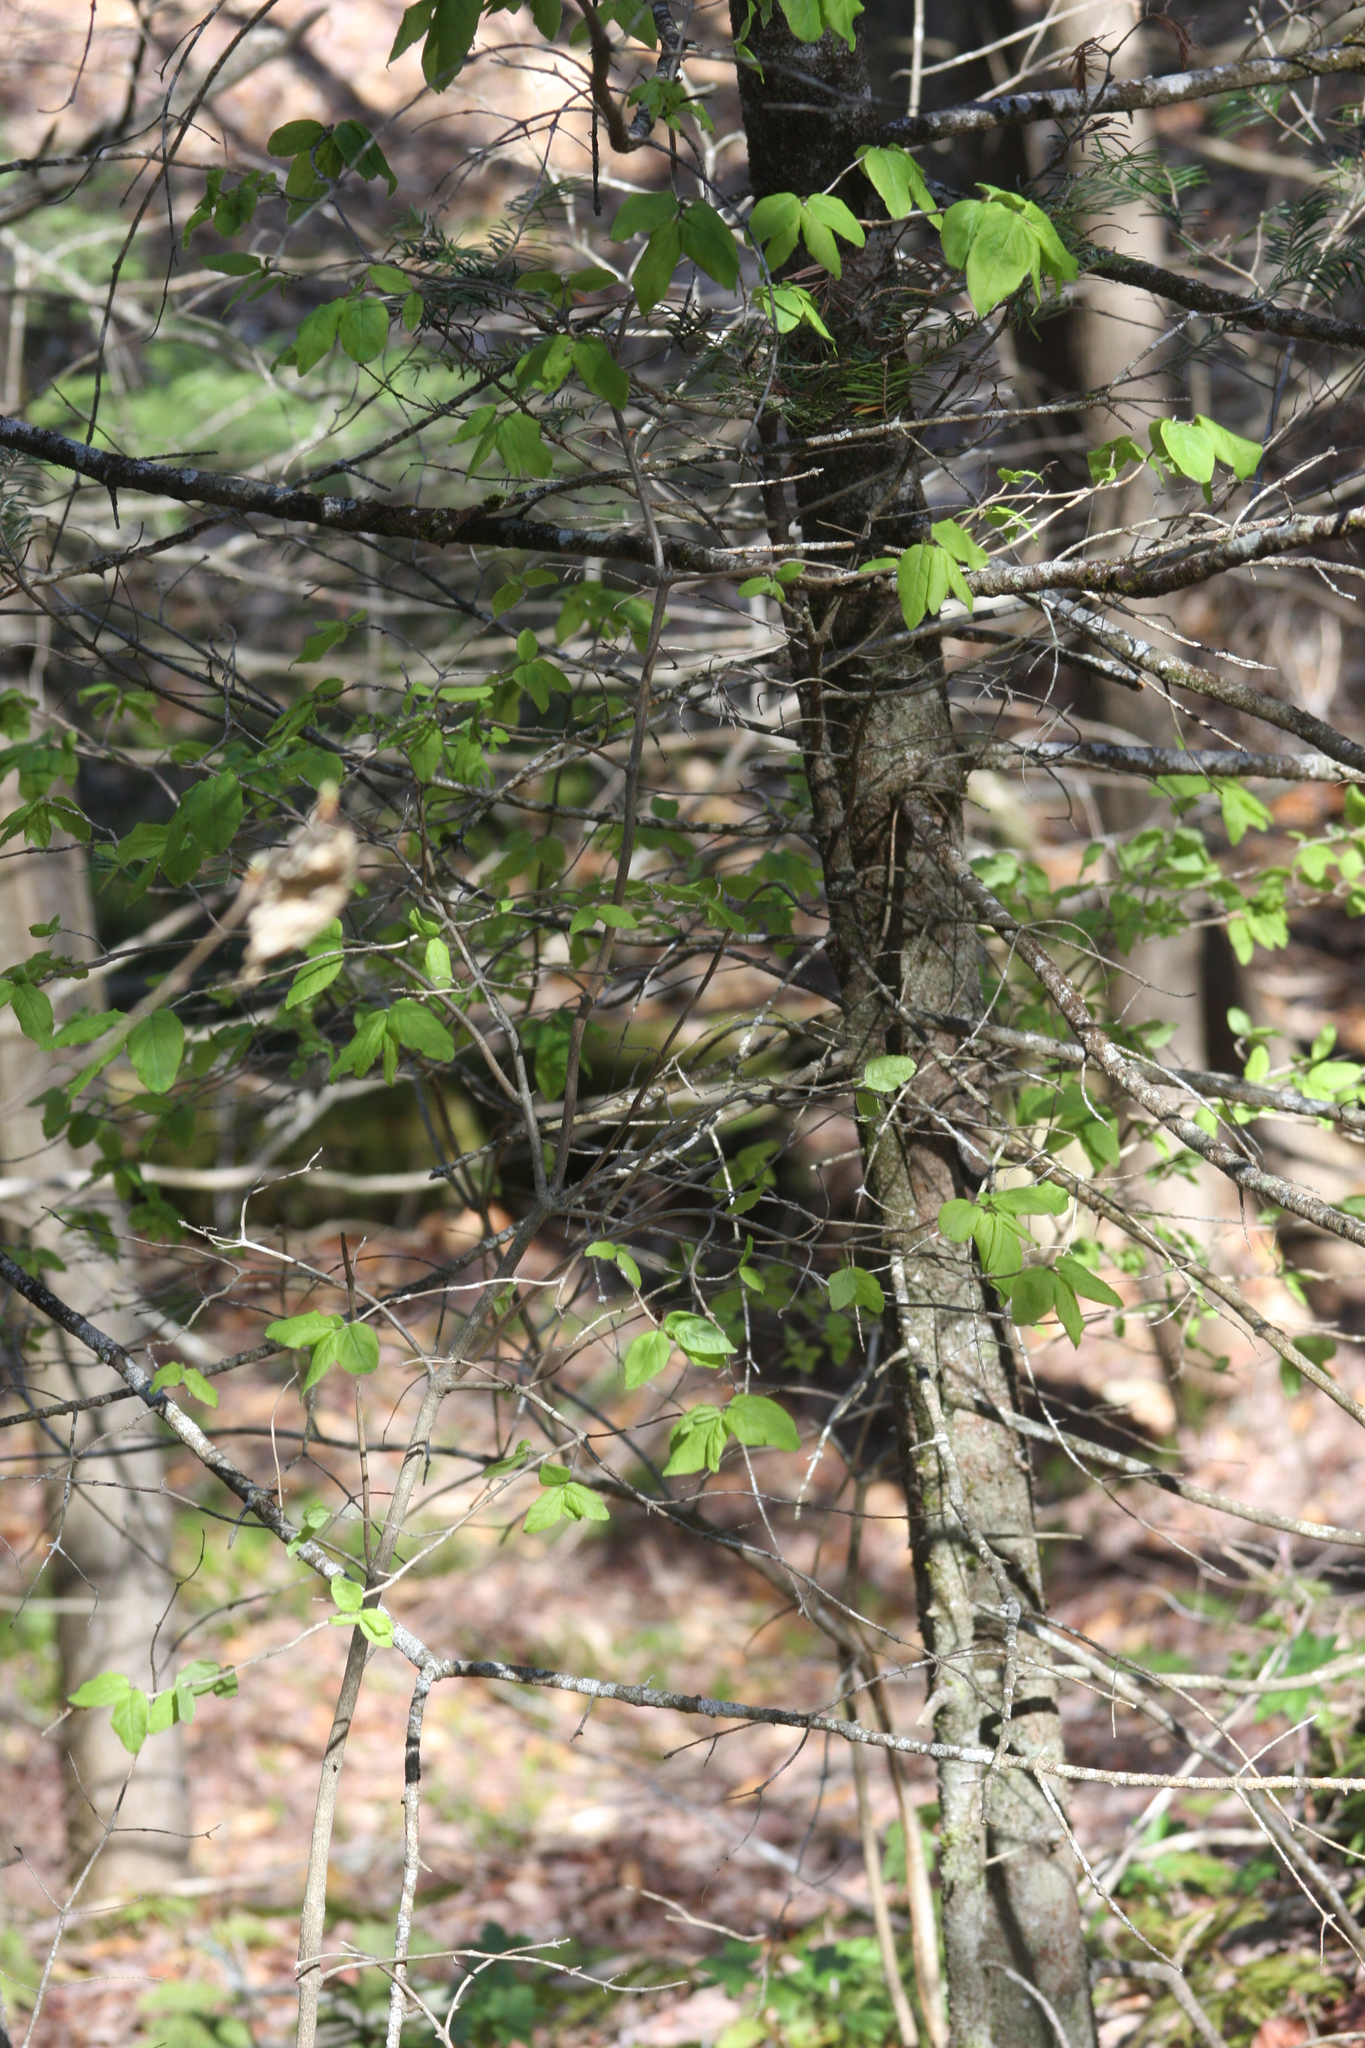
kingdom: Plantae
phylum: Tracheophyta
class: Magnoliopsida
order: Dipsacales
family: Caprifoliaceae
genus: Lonicera
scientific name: Lonicera canadensis
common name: American fly-honeysuckle
